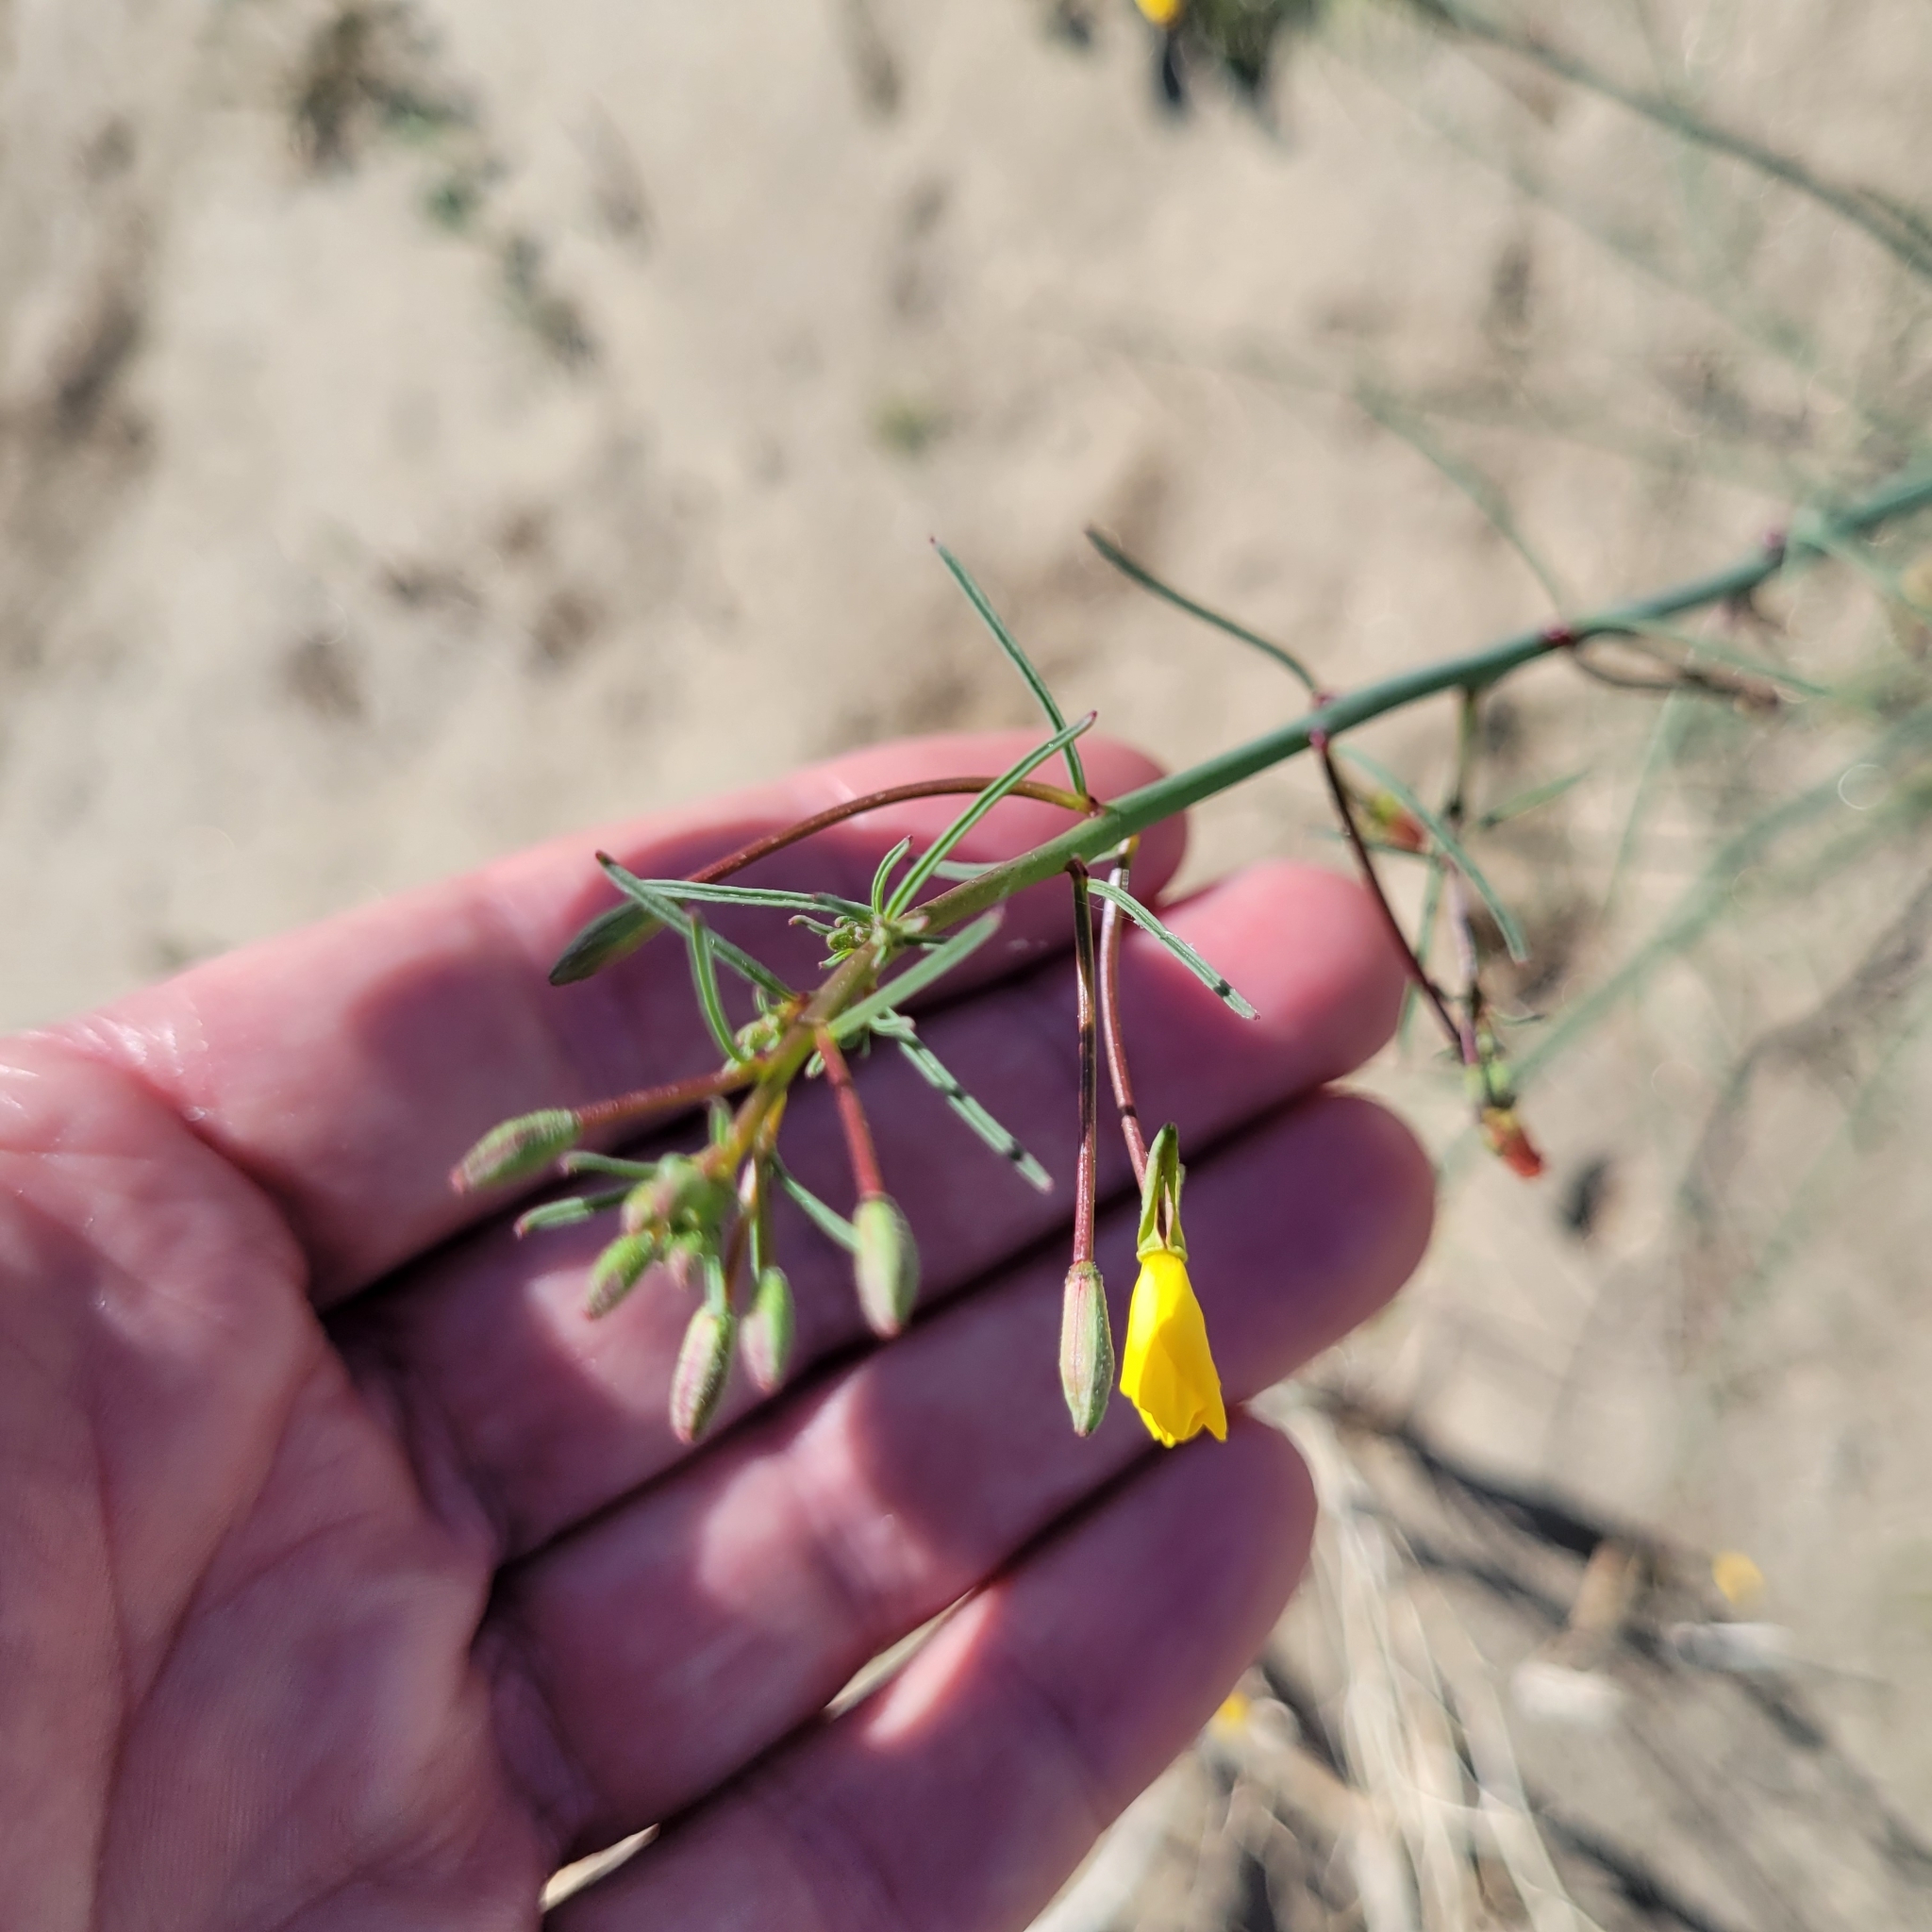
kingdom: Plantae
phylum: Tracheophyta
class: Magnoliopsida
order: Myrtales
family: Onagraceae
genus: Eulobus
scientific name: Eulobus californicus
